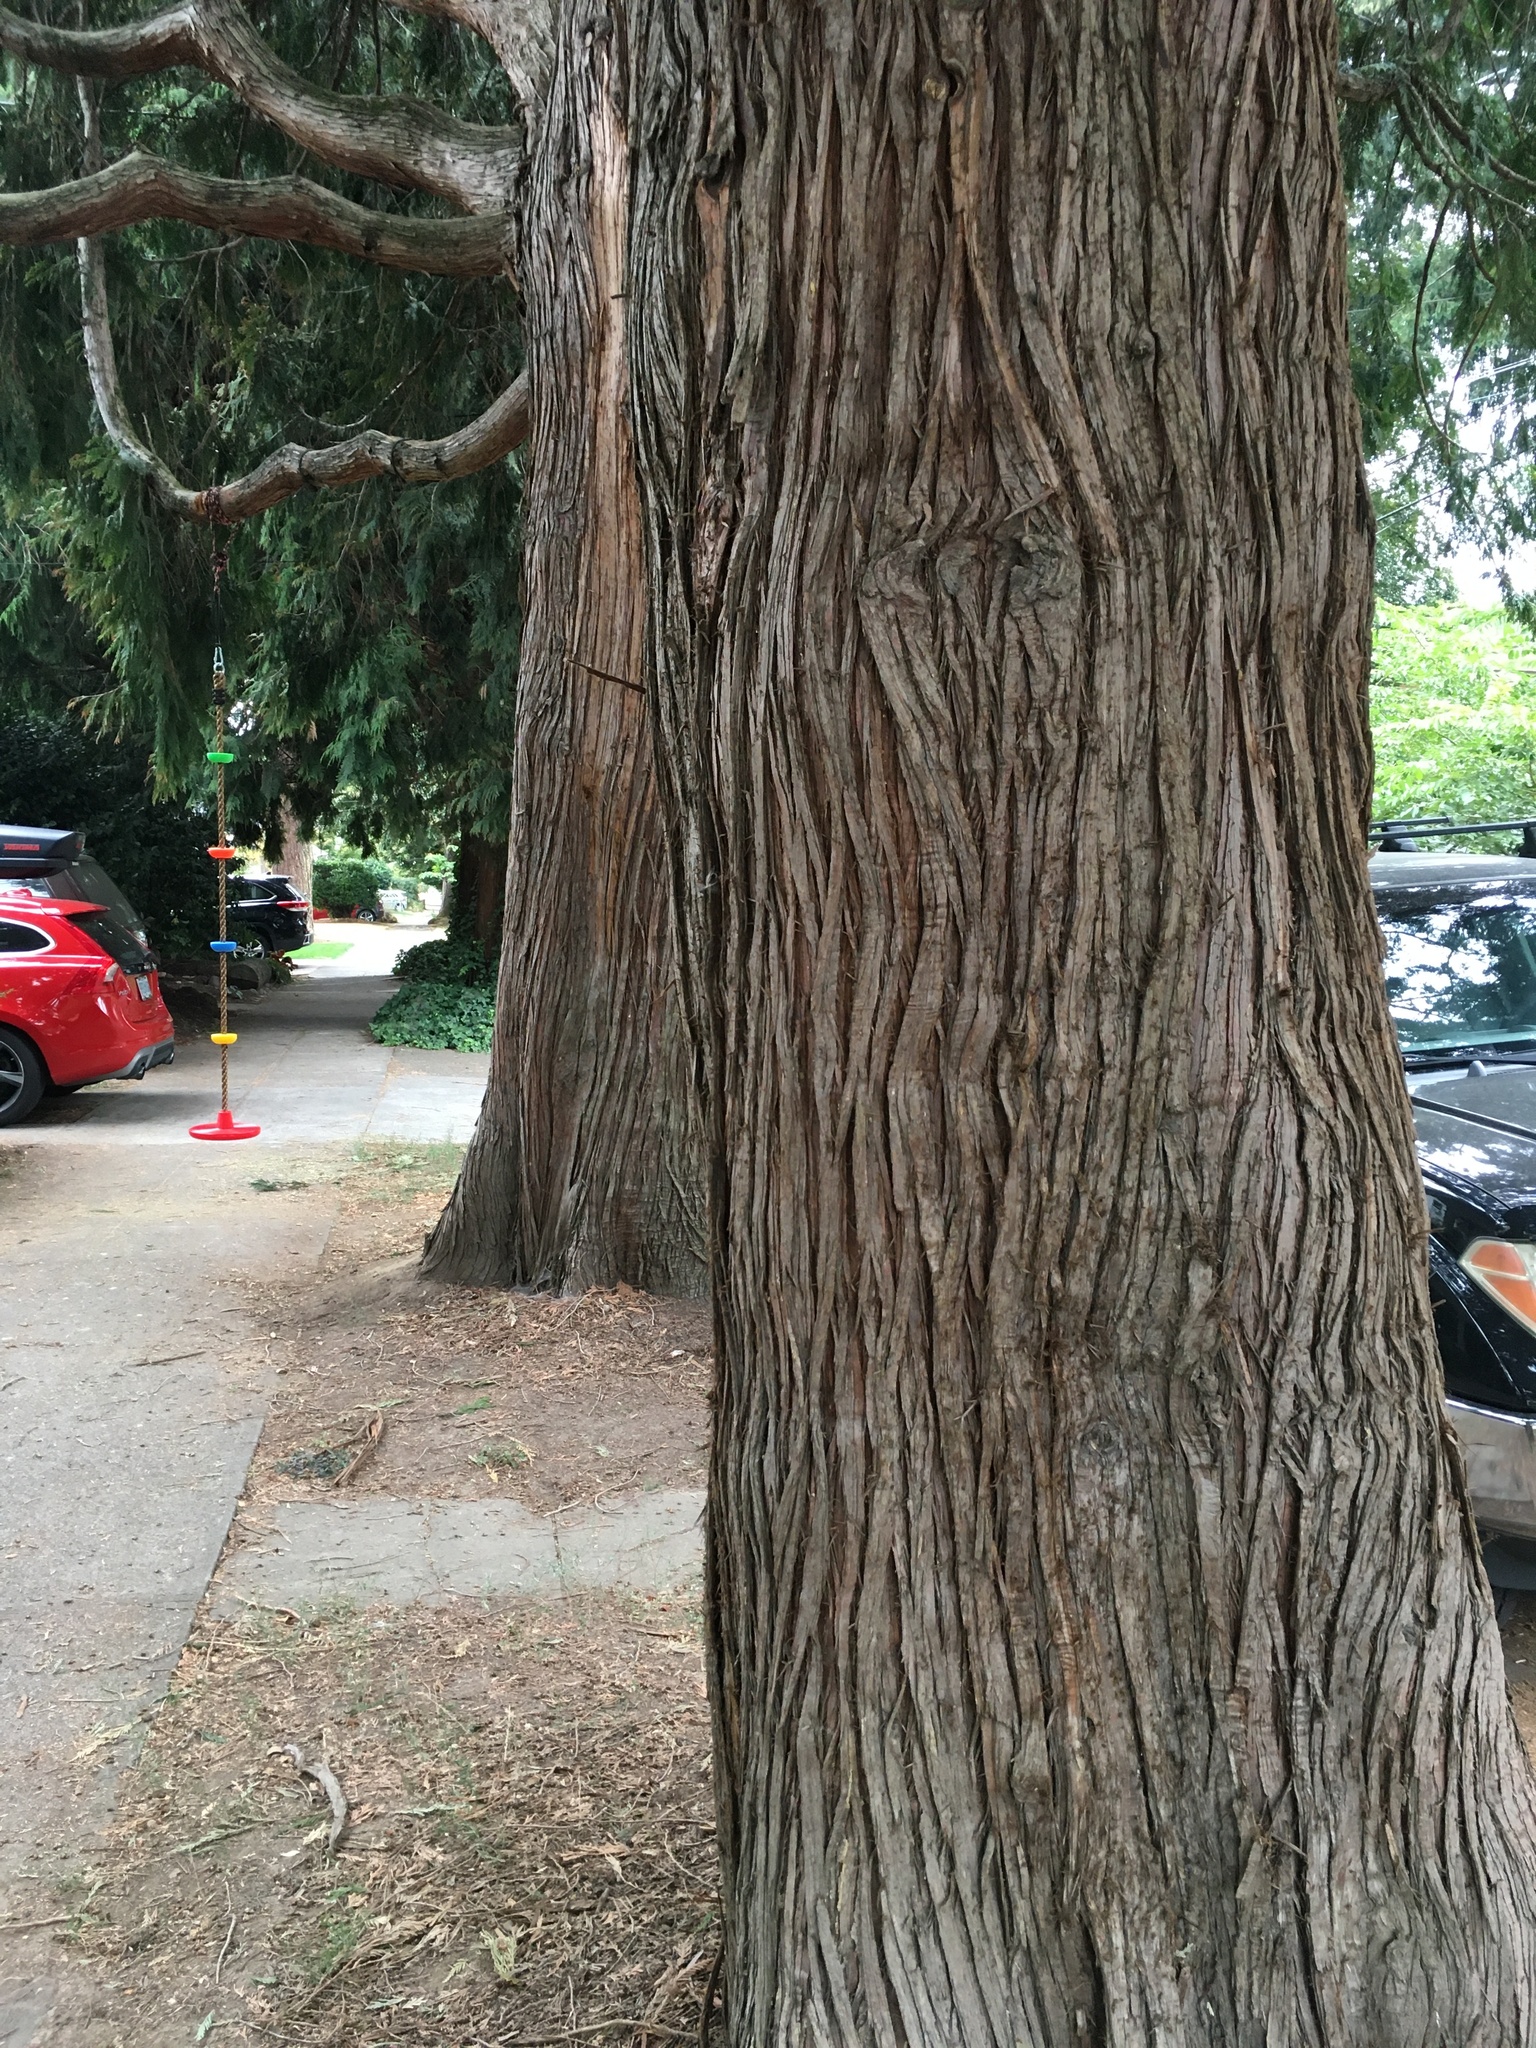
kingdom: Plantae
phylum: Tracheophyta
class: Pinopsida
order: Pinales
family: Cupressaceae
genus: Thuja
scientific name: Thuja plicata
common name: Western red-cedar
